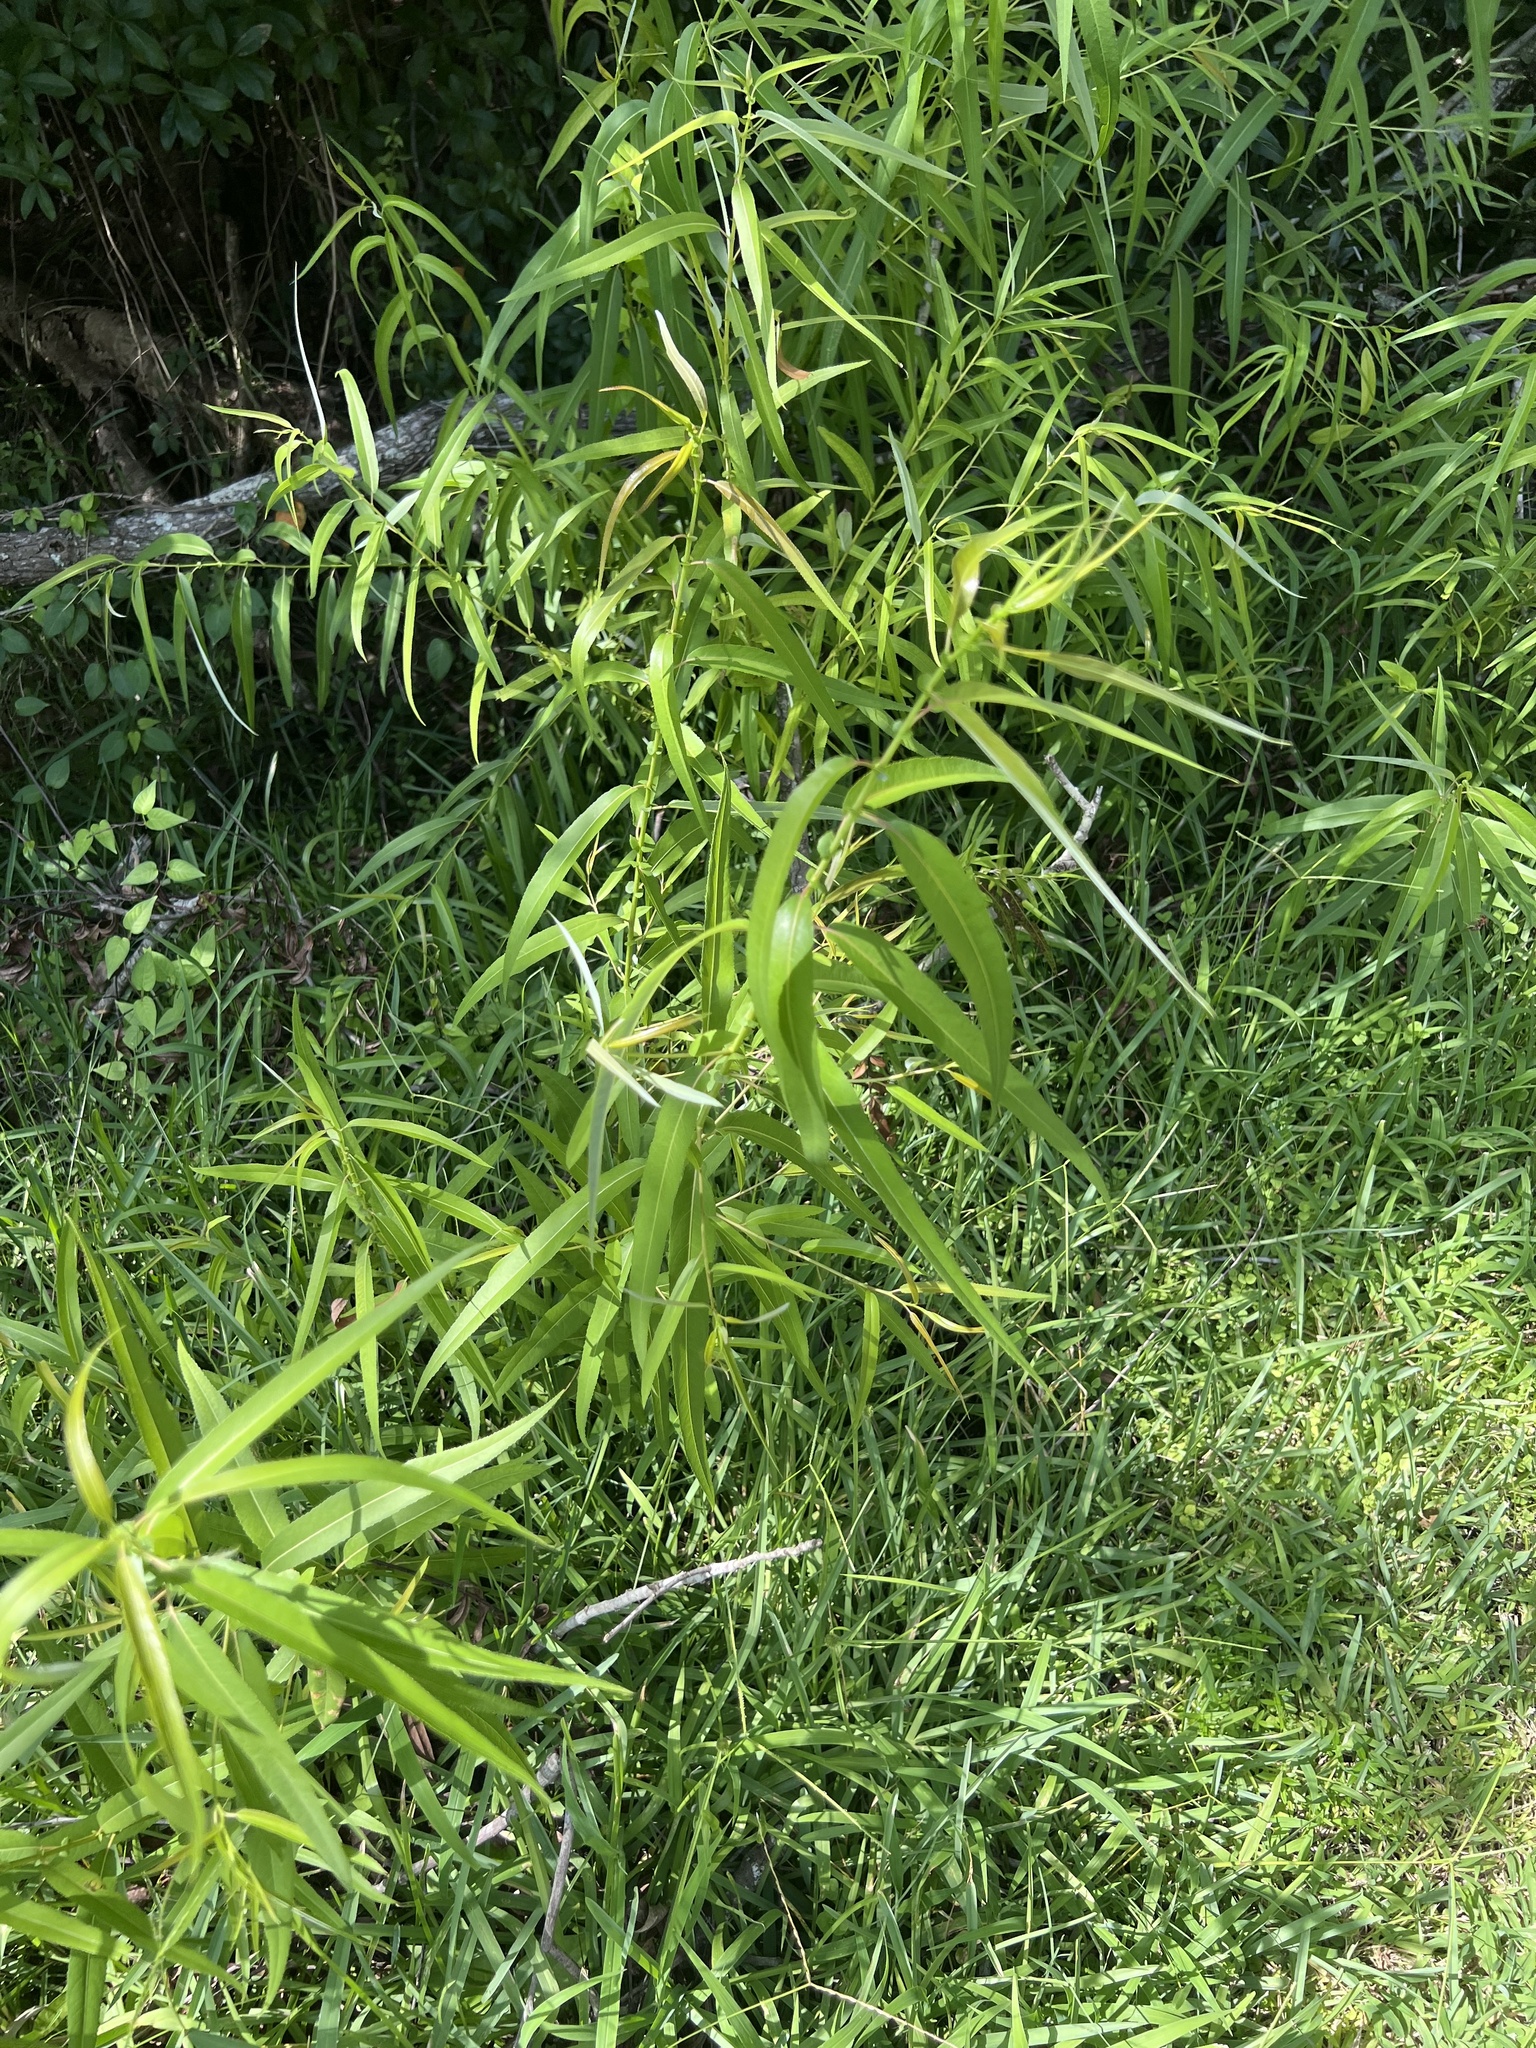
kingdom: Plantae
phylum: Tracheophyta
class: Magnoliopsida
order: Malpighiales
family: Salicaceae
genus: Salix
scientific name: Salix caroliniana
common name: Carolina willow
